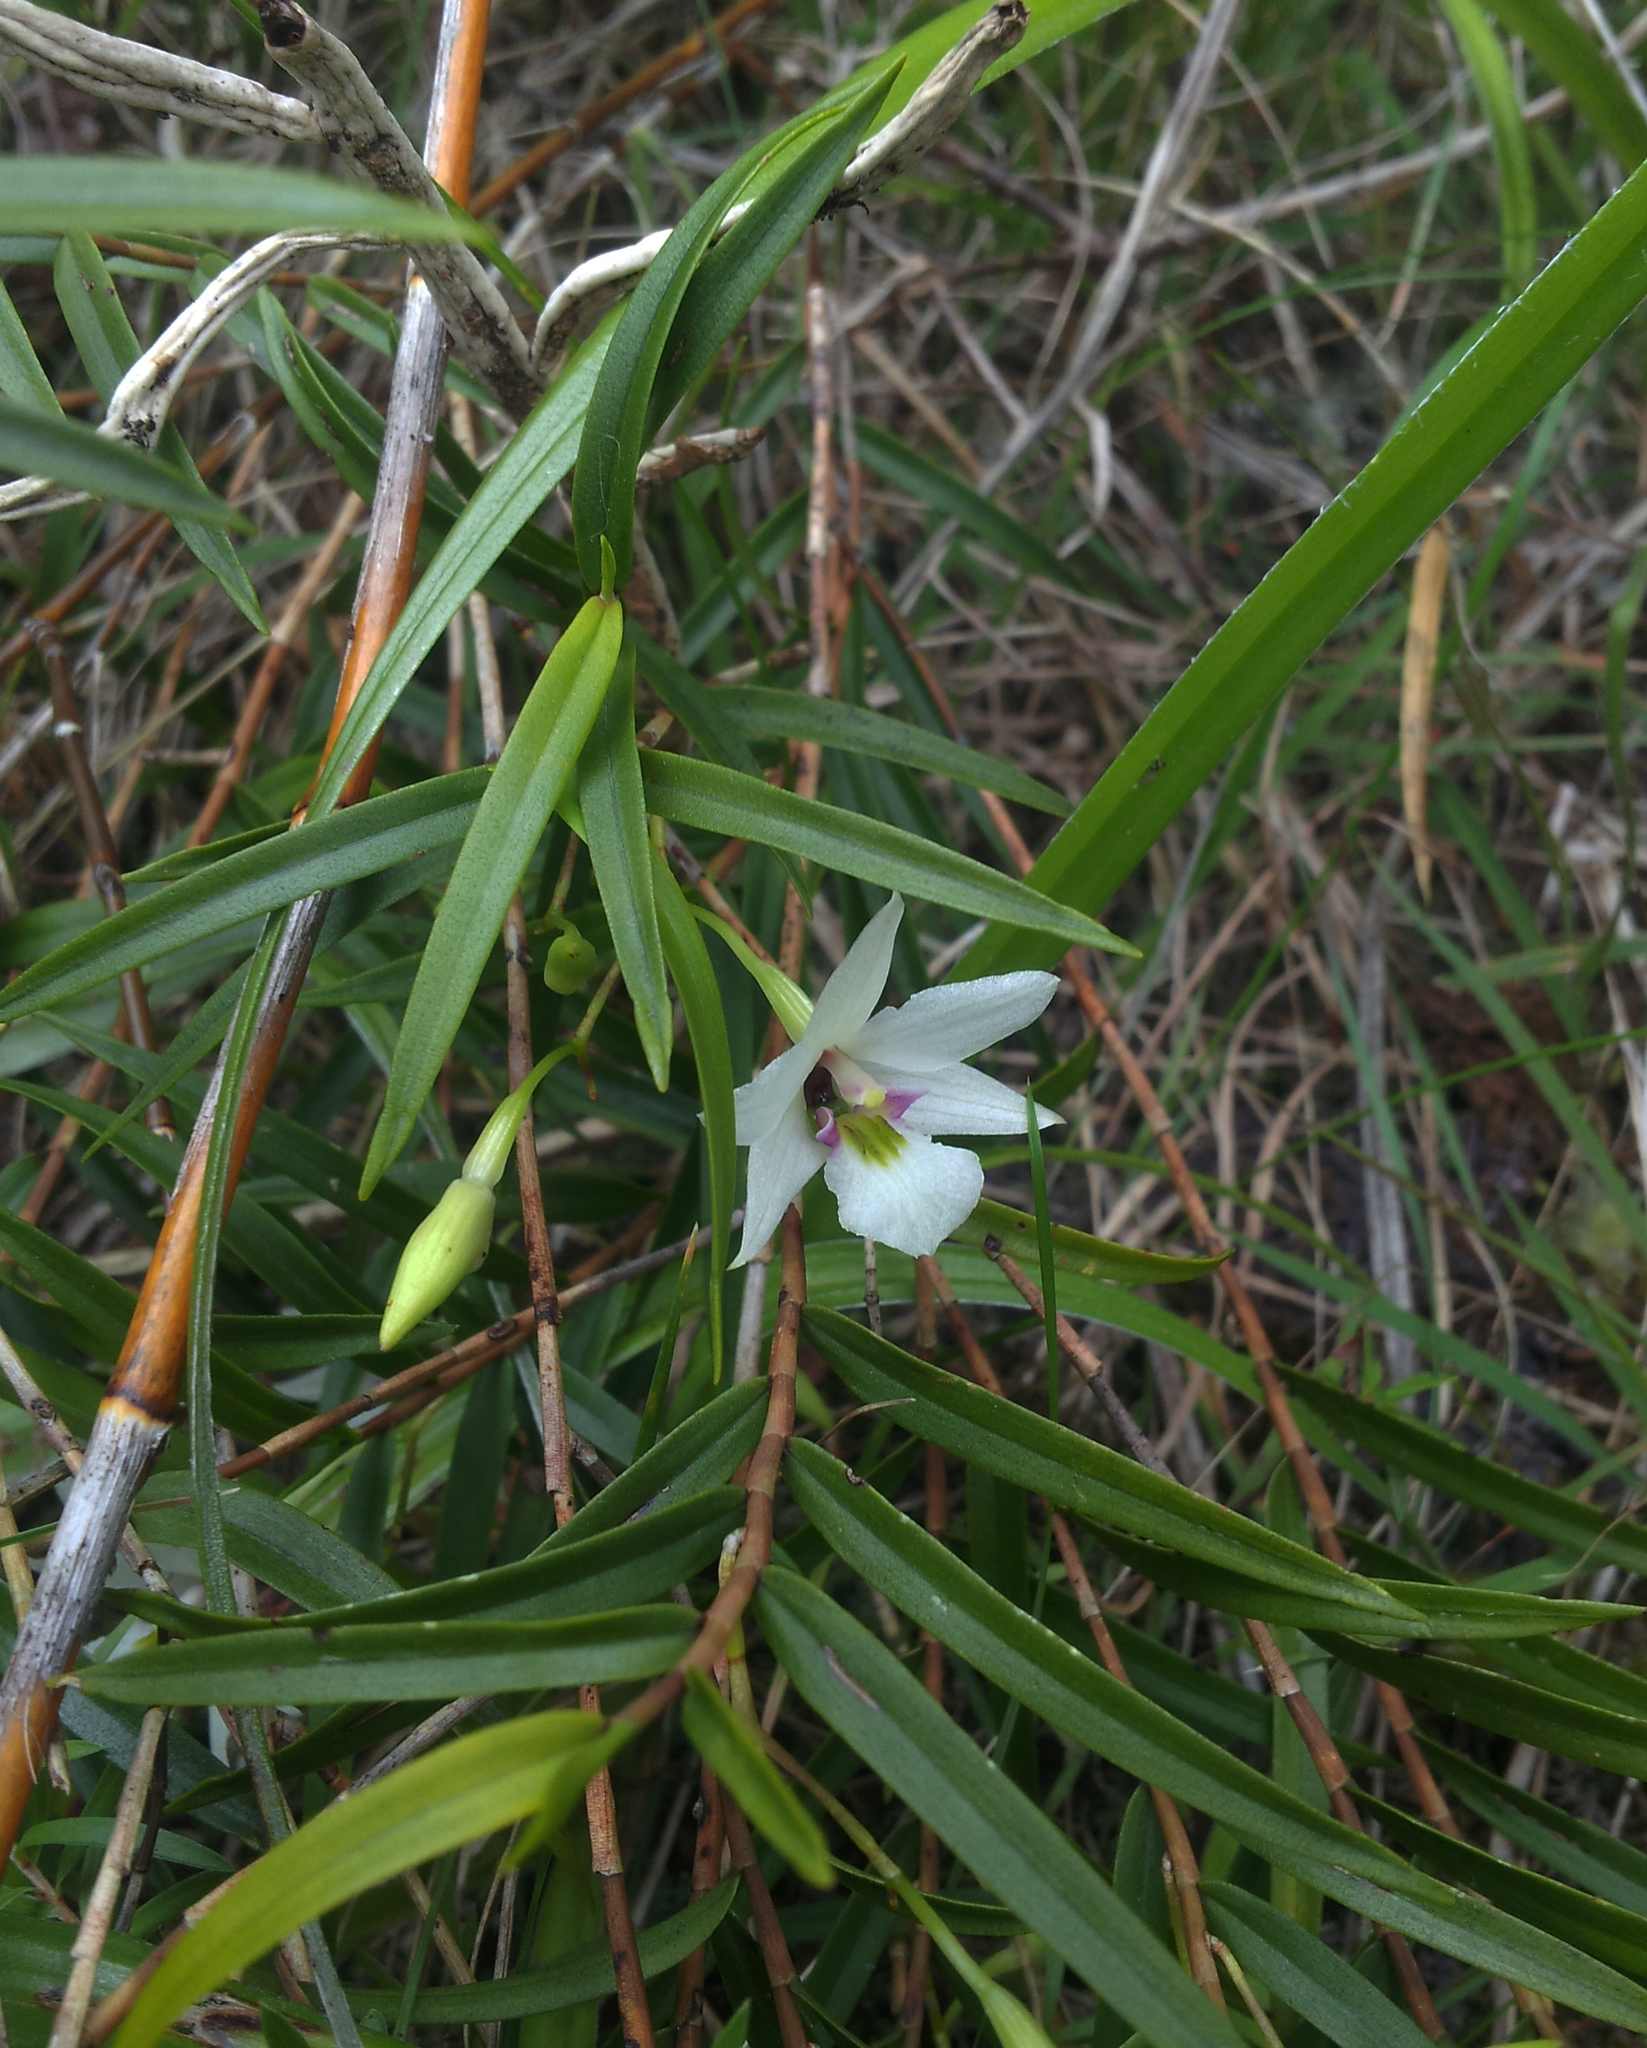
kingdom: Plantae
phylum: Tracheophyta
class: Liliopsida
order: Asparagales
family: Orchidaceae
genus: Dendrobium
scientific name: Dendrobium cunninghamii
